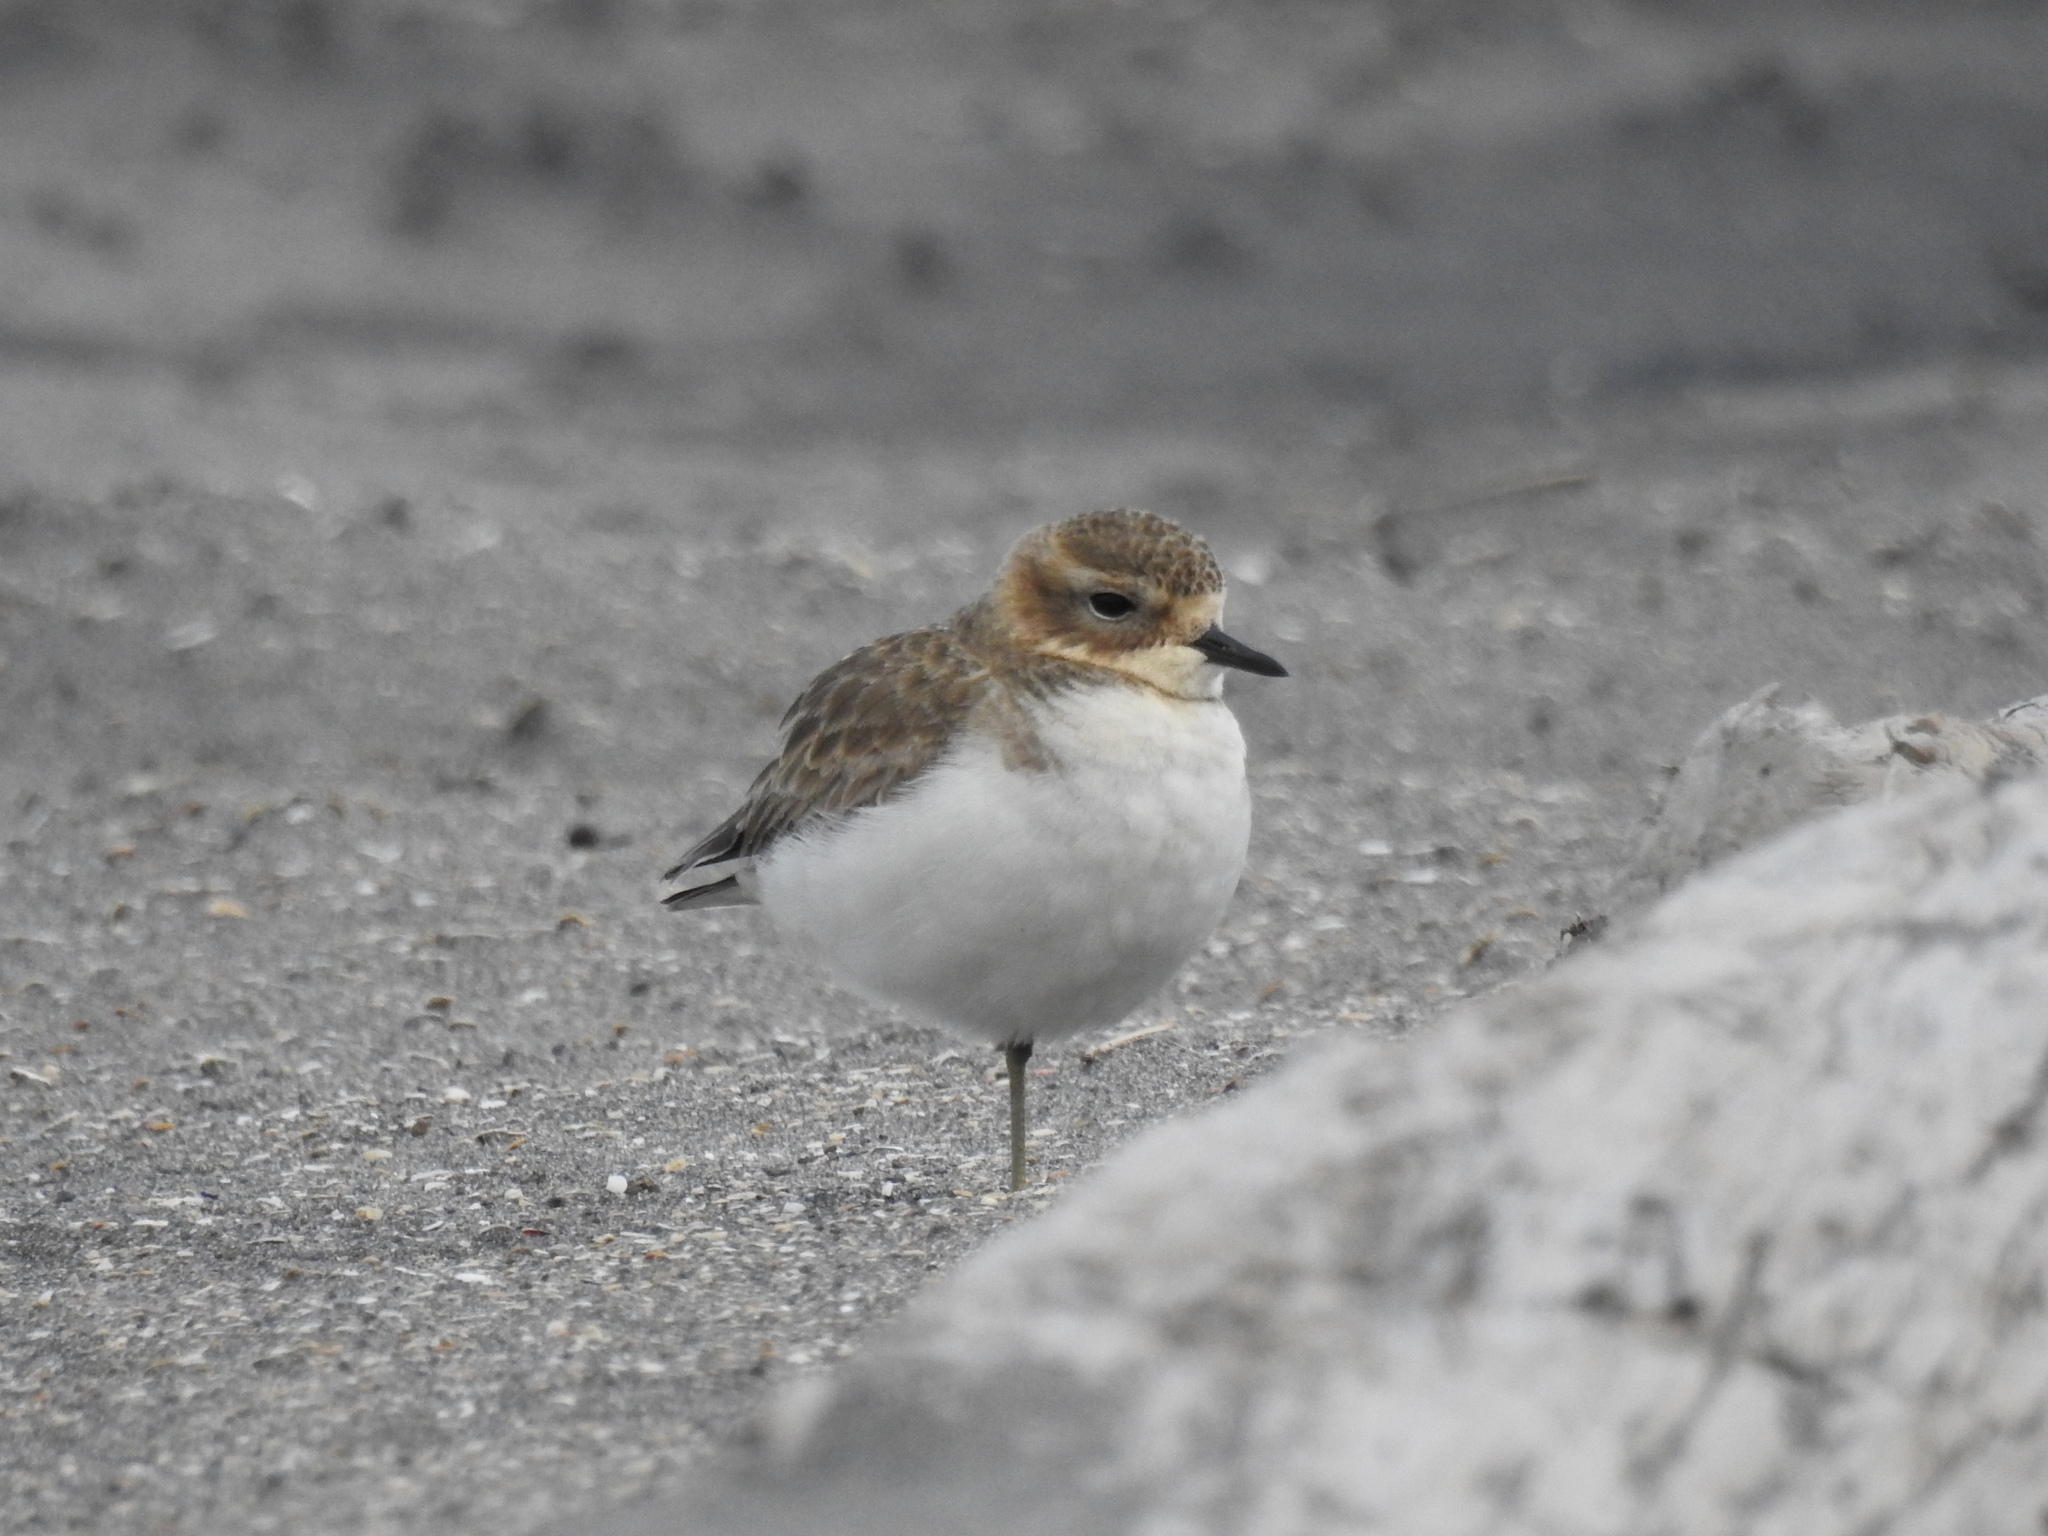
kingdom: Animalia
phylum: Chordata
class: Aves
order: Charadriiformes
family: Charadriidae
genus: Anarhynchus
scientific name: Anarhynchus
